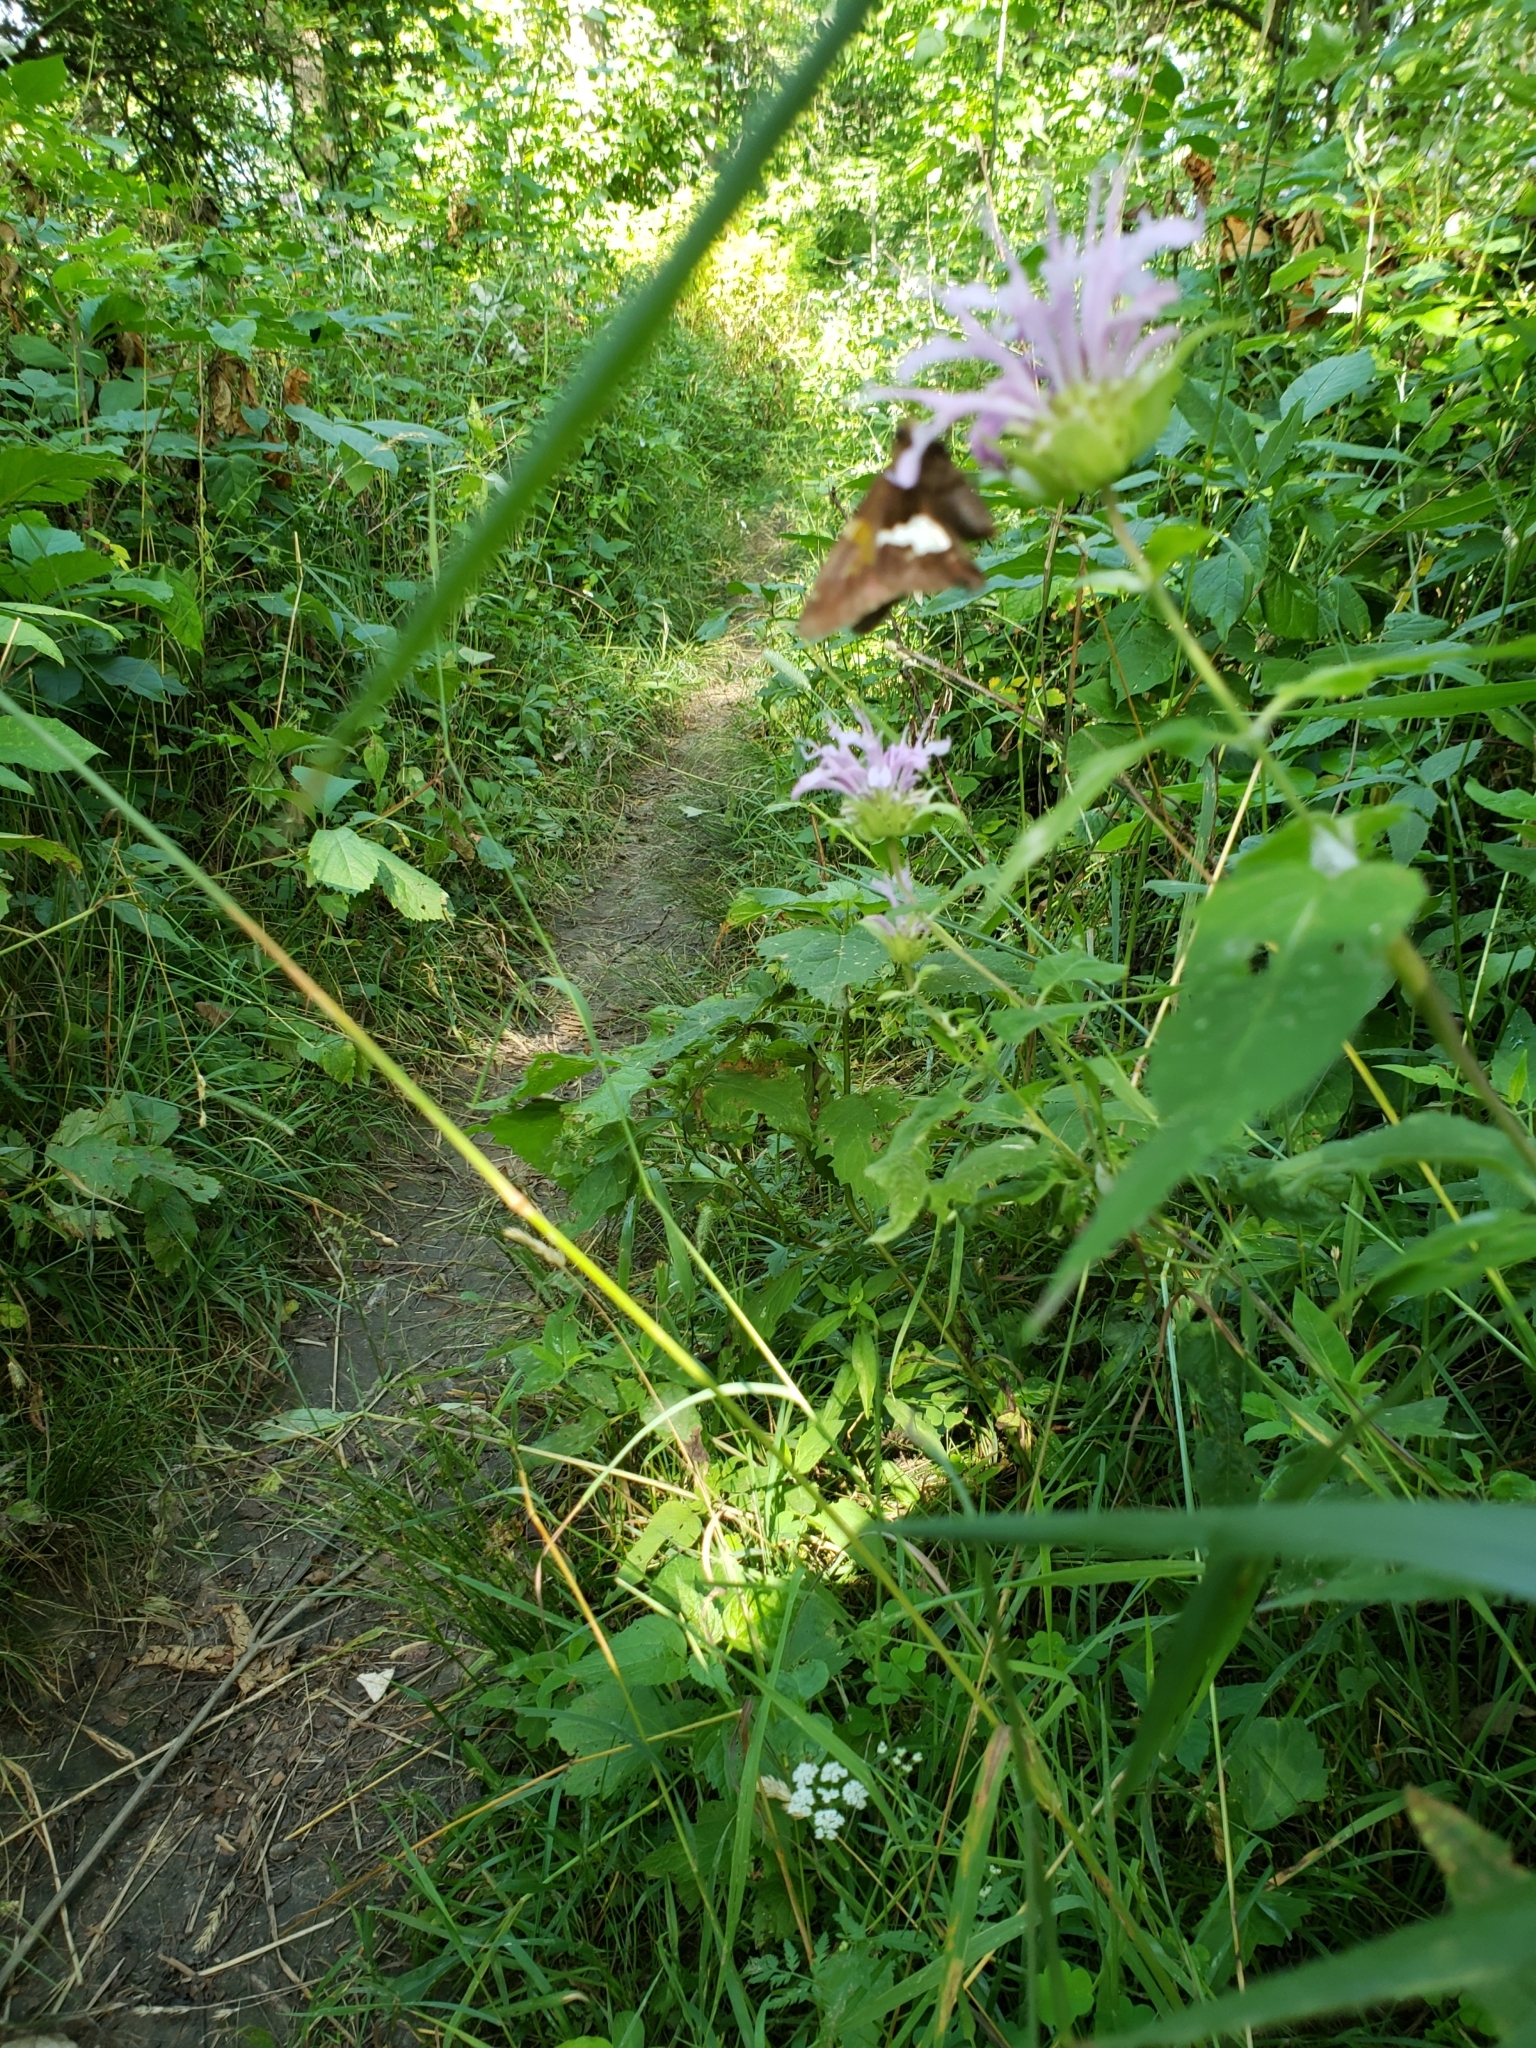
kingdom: Animalia
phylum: Arthropoda
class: Insecta
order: Lepidoptera
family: Hesperiidae
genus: Epargyreus
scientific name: Epargyreus clarus
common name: Silver-spotted skipper
